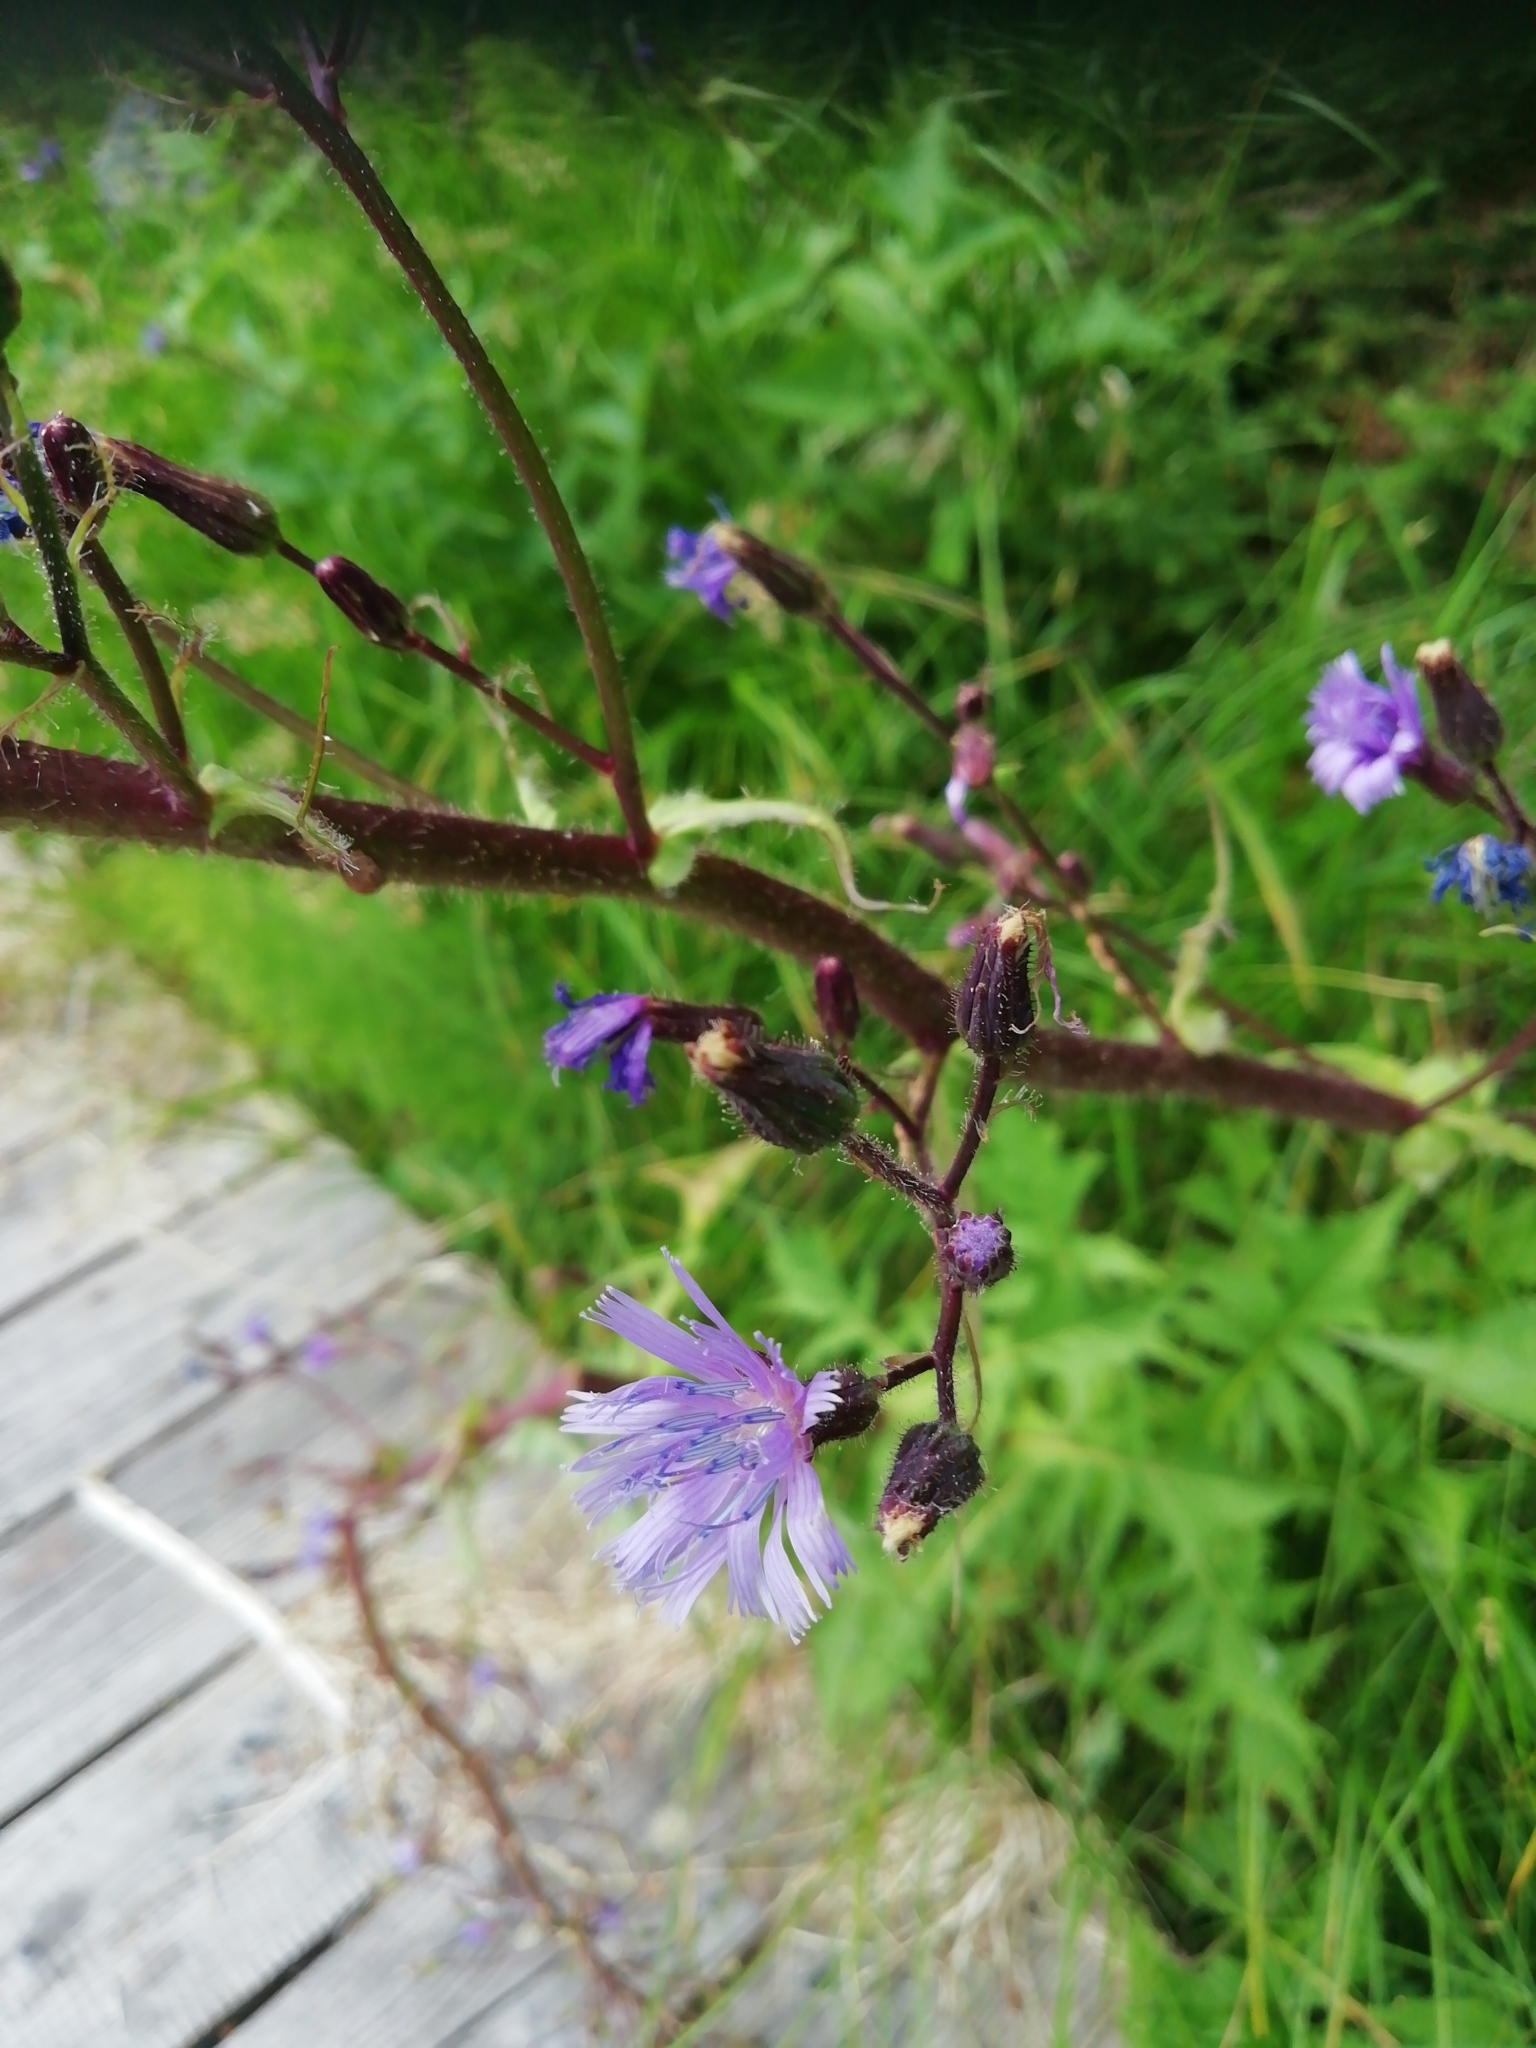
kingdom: Plantae
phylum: Tracheophyta
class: Magnoliopsida
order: Asterales
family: Asteraceae
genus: Cicerbita
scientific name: Cicerbita alpina
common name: Alpine blue-sow-thistle
